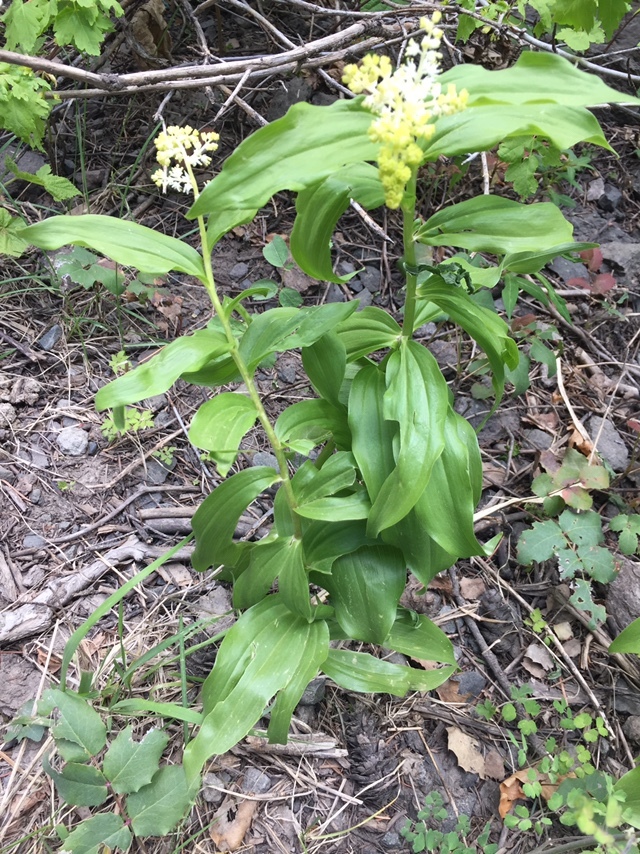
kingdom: Plantae
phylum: Tracheophyta
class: Liliopsida
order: Asparagales
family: Asparagaceae
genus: Maianthemum
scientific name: Maianthemum racemosum
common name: False spikenard
